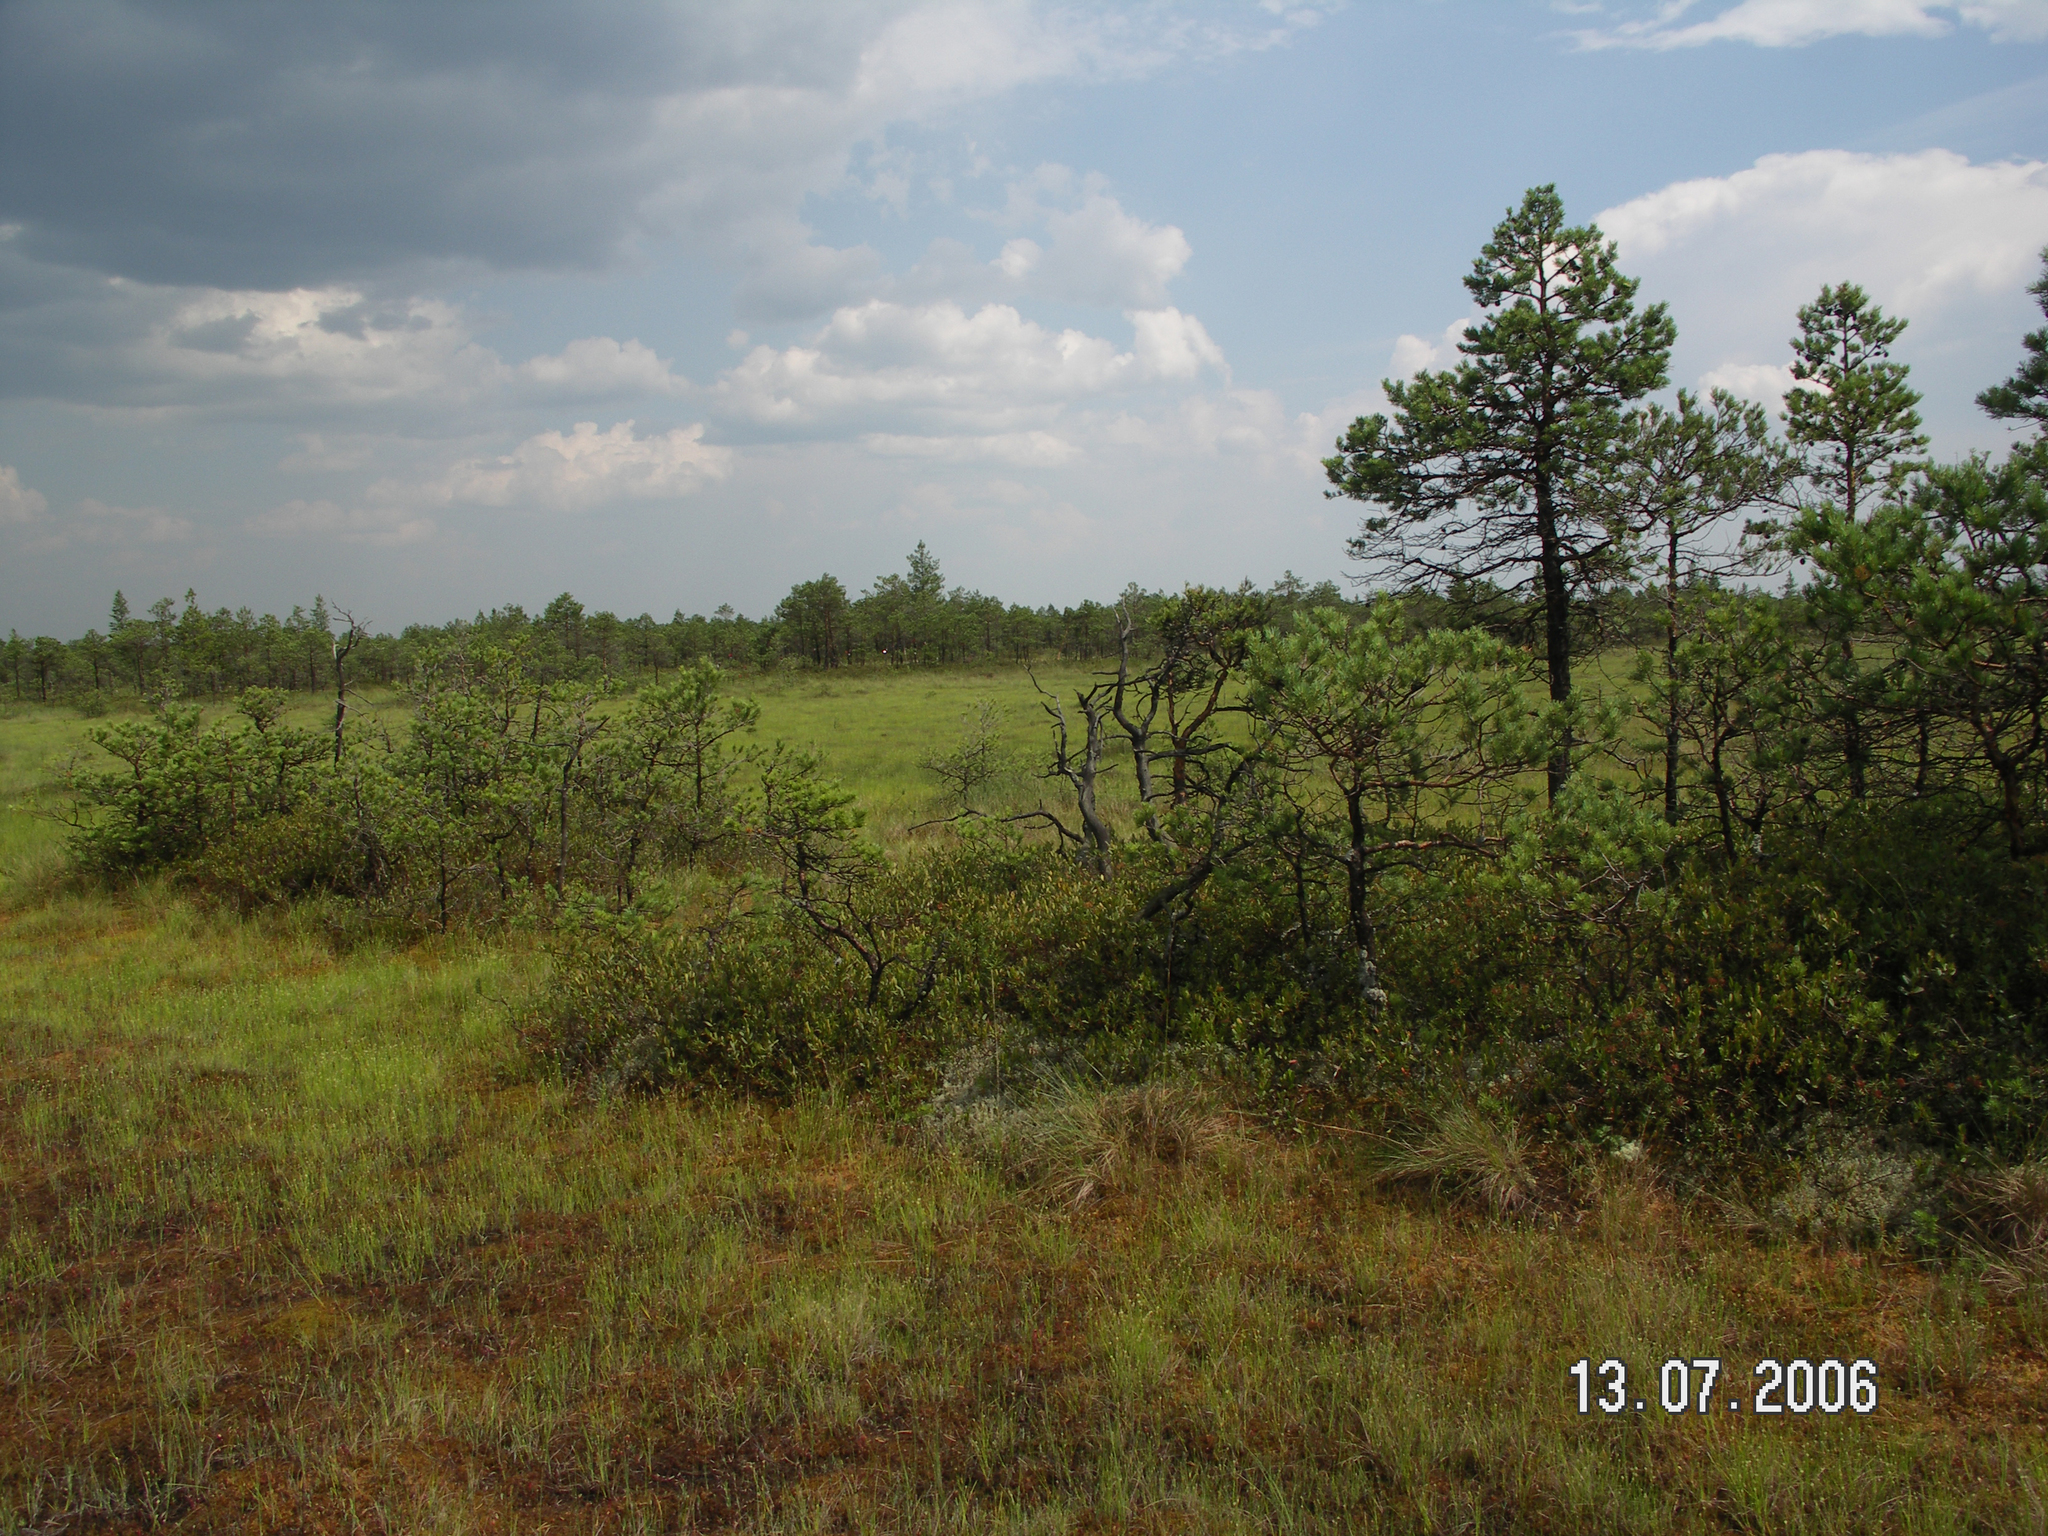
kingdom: Plantae
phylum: Tracheophyta
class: Pinopsida
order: Pinales
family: Pinaceae
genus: Pinus
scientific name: Pinus sylvestris
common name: Scots pine
